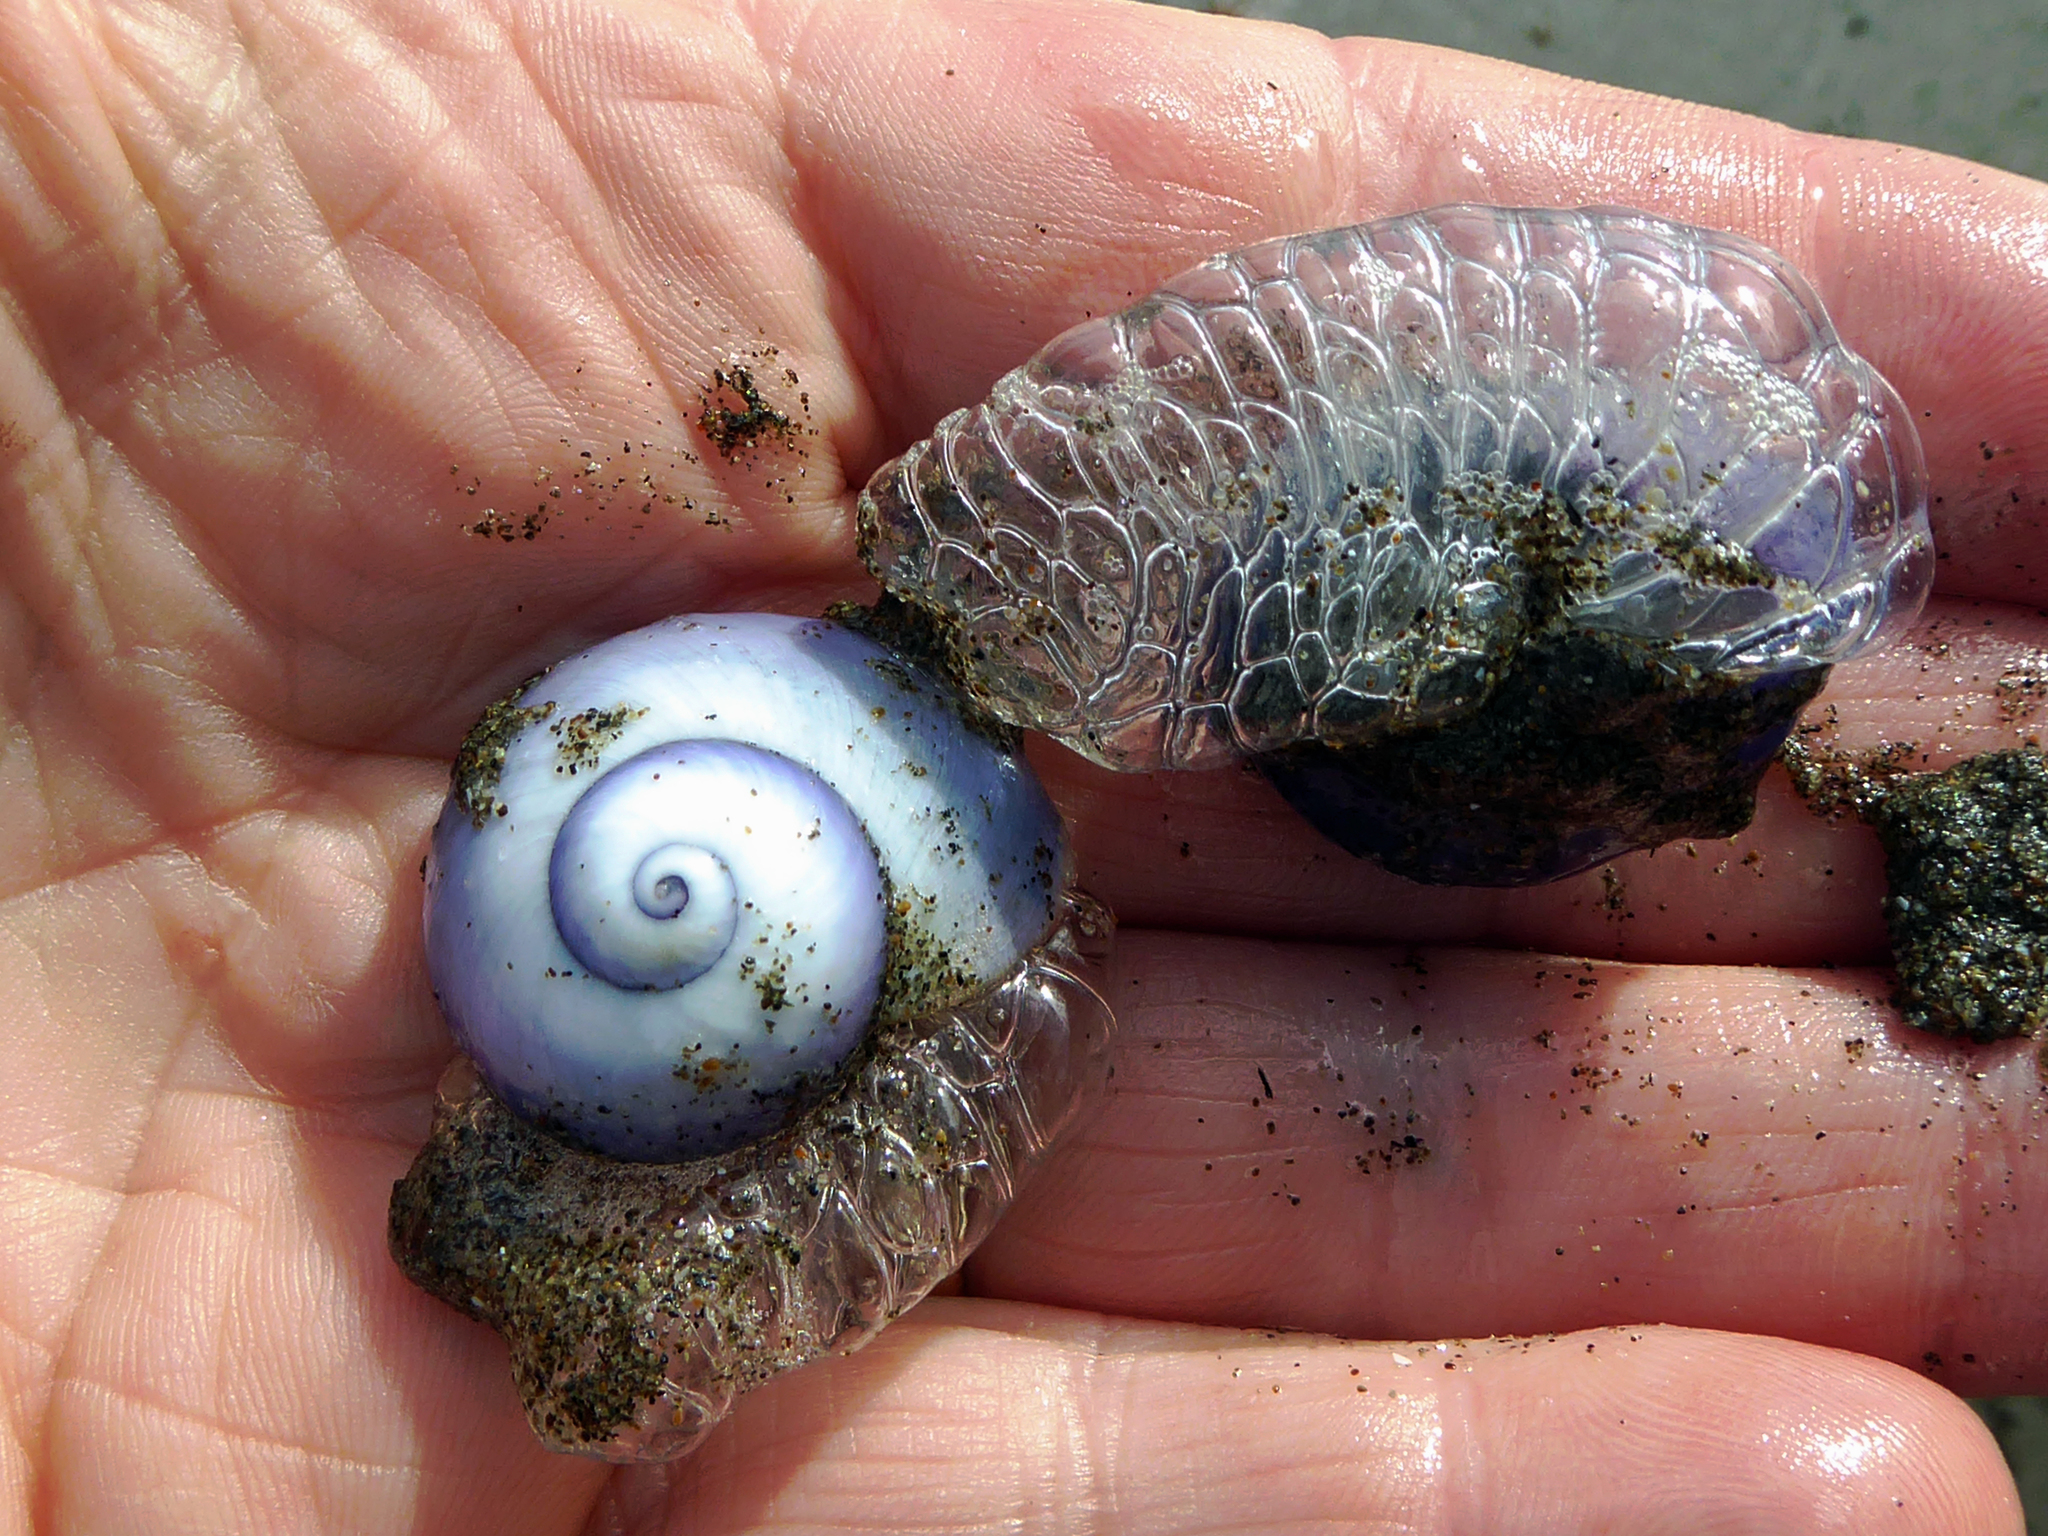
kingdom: Animalia
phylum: Mollusca
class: Gastropoda
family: Epitoniidae
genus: Janthina
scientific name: Janthina janthina
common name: Common janthina
